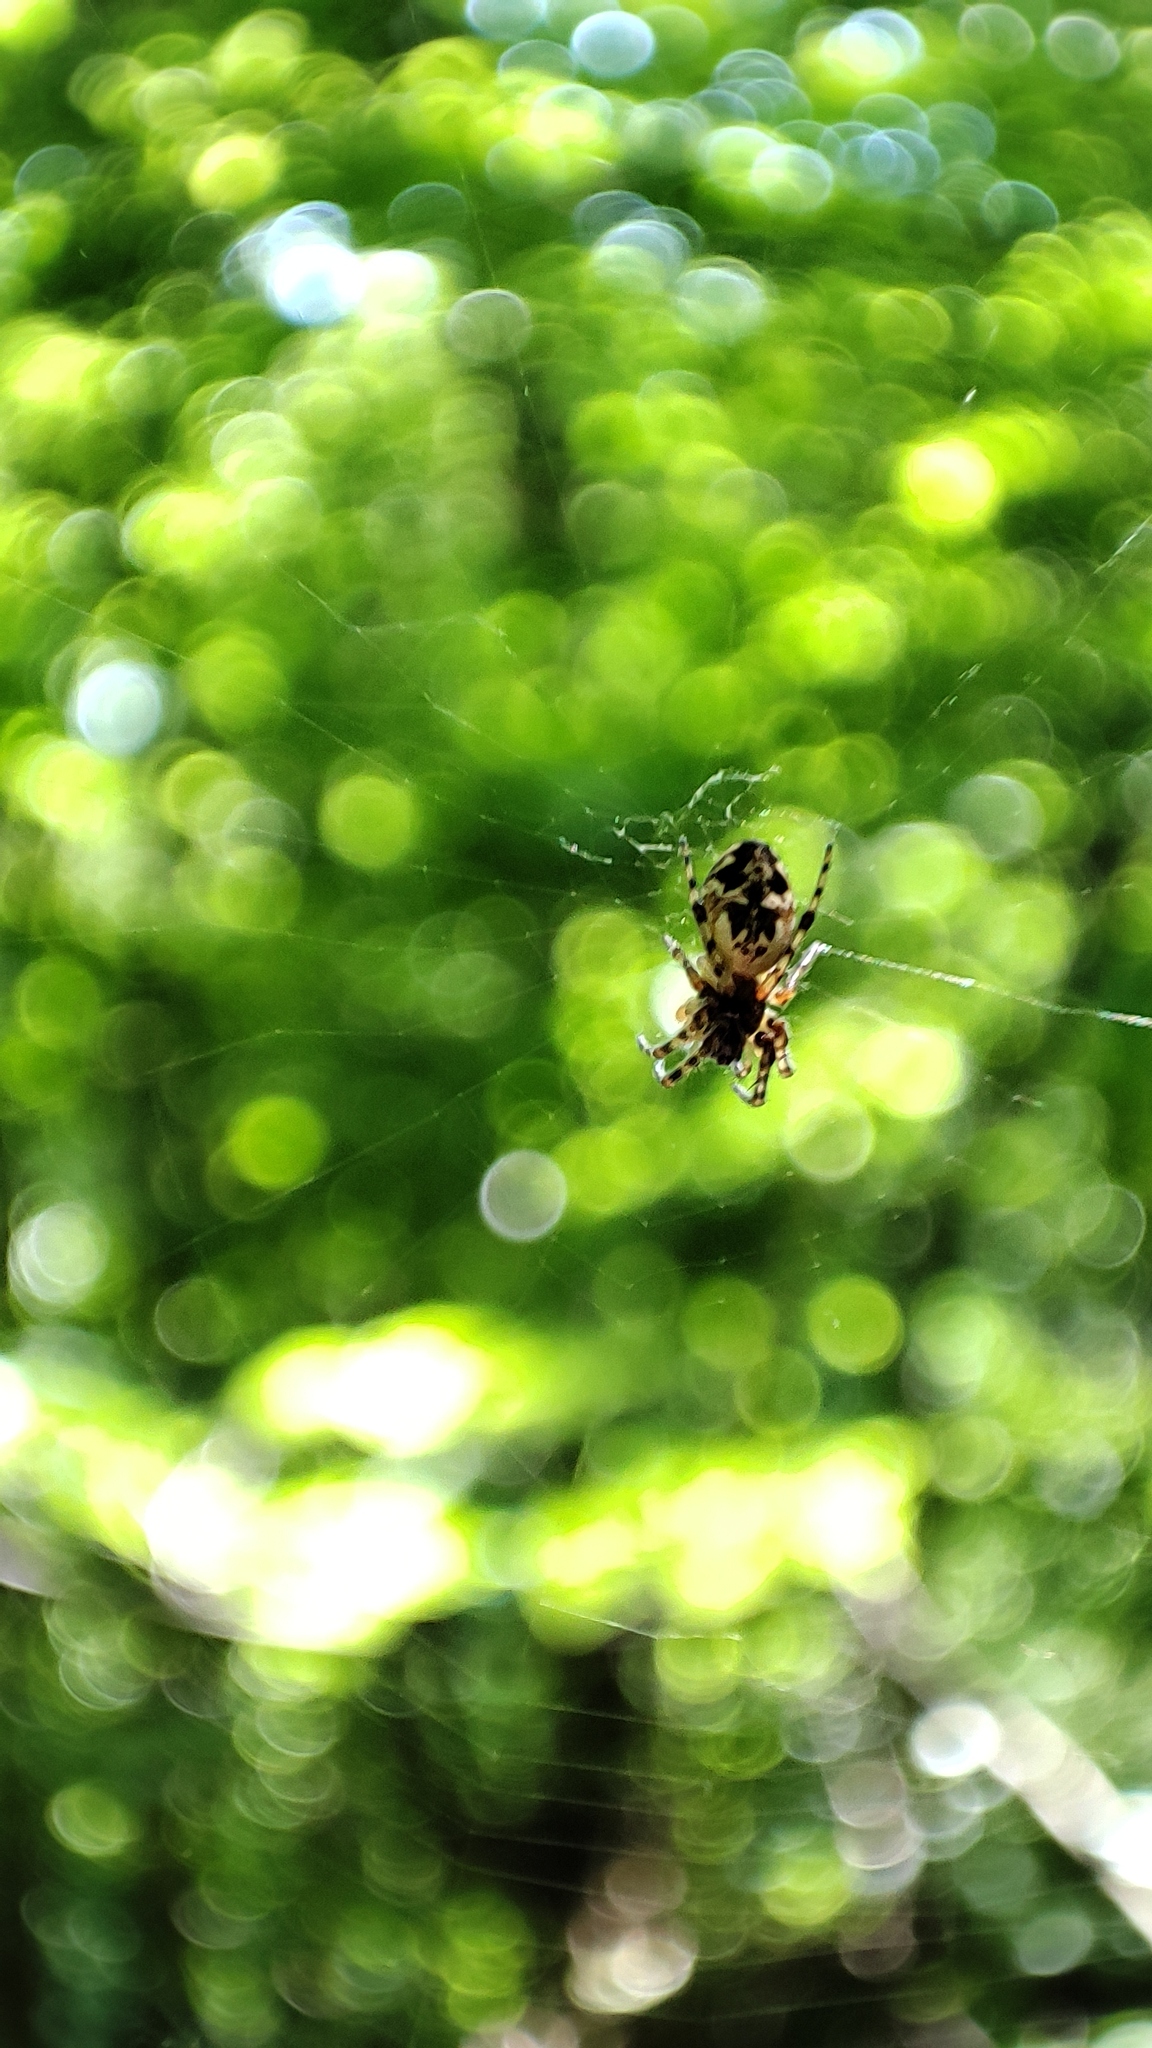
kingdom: Animalia
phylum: Arthropoda
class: Arachnida
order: Araneae
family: Araneidae
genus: Cyclosa
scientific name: Cyclosa conica
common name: Conical trashline orbweaver
